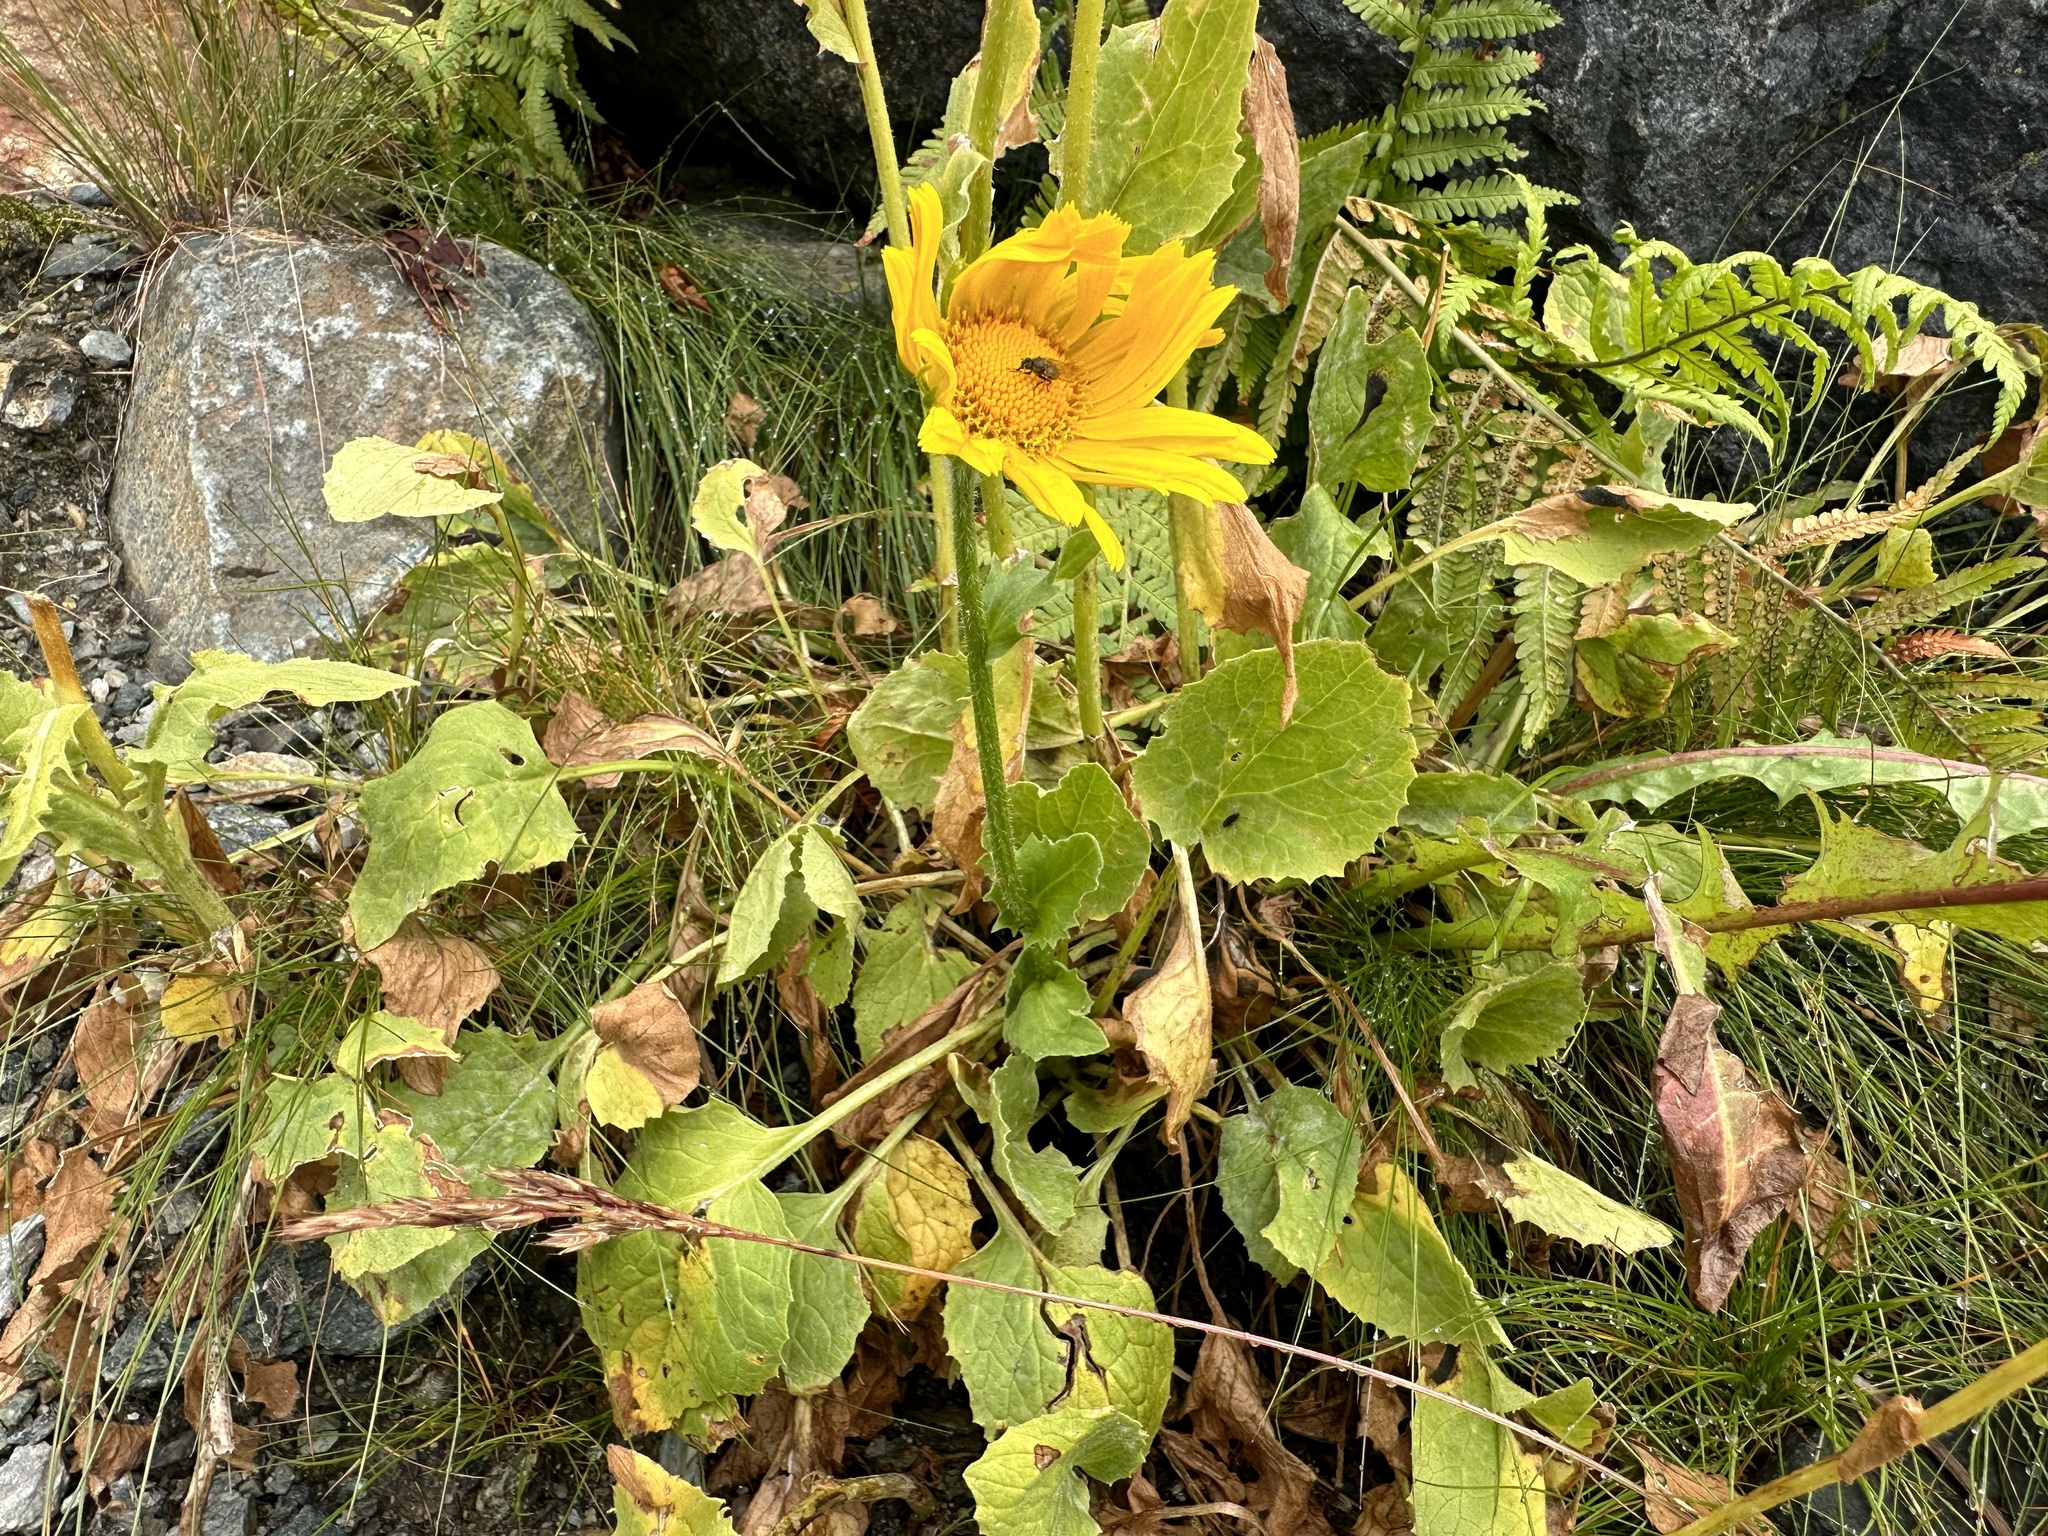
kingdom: Plantae
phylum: Tracheophyta
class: Magnoliopsida
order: Asterales
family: Asteraceae
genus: Doronicum
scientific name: Doronicum grandiflorum
